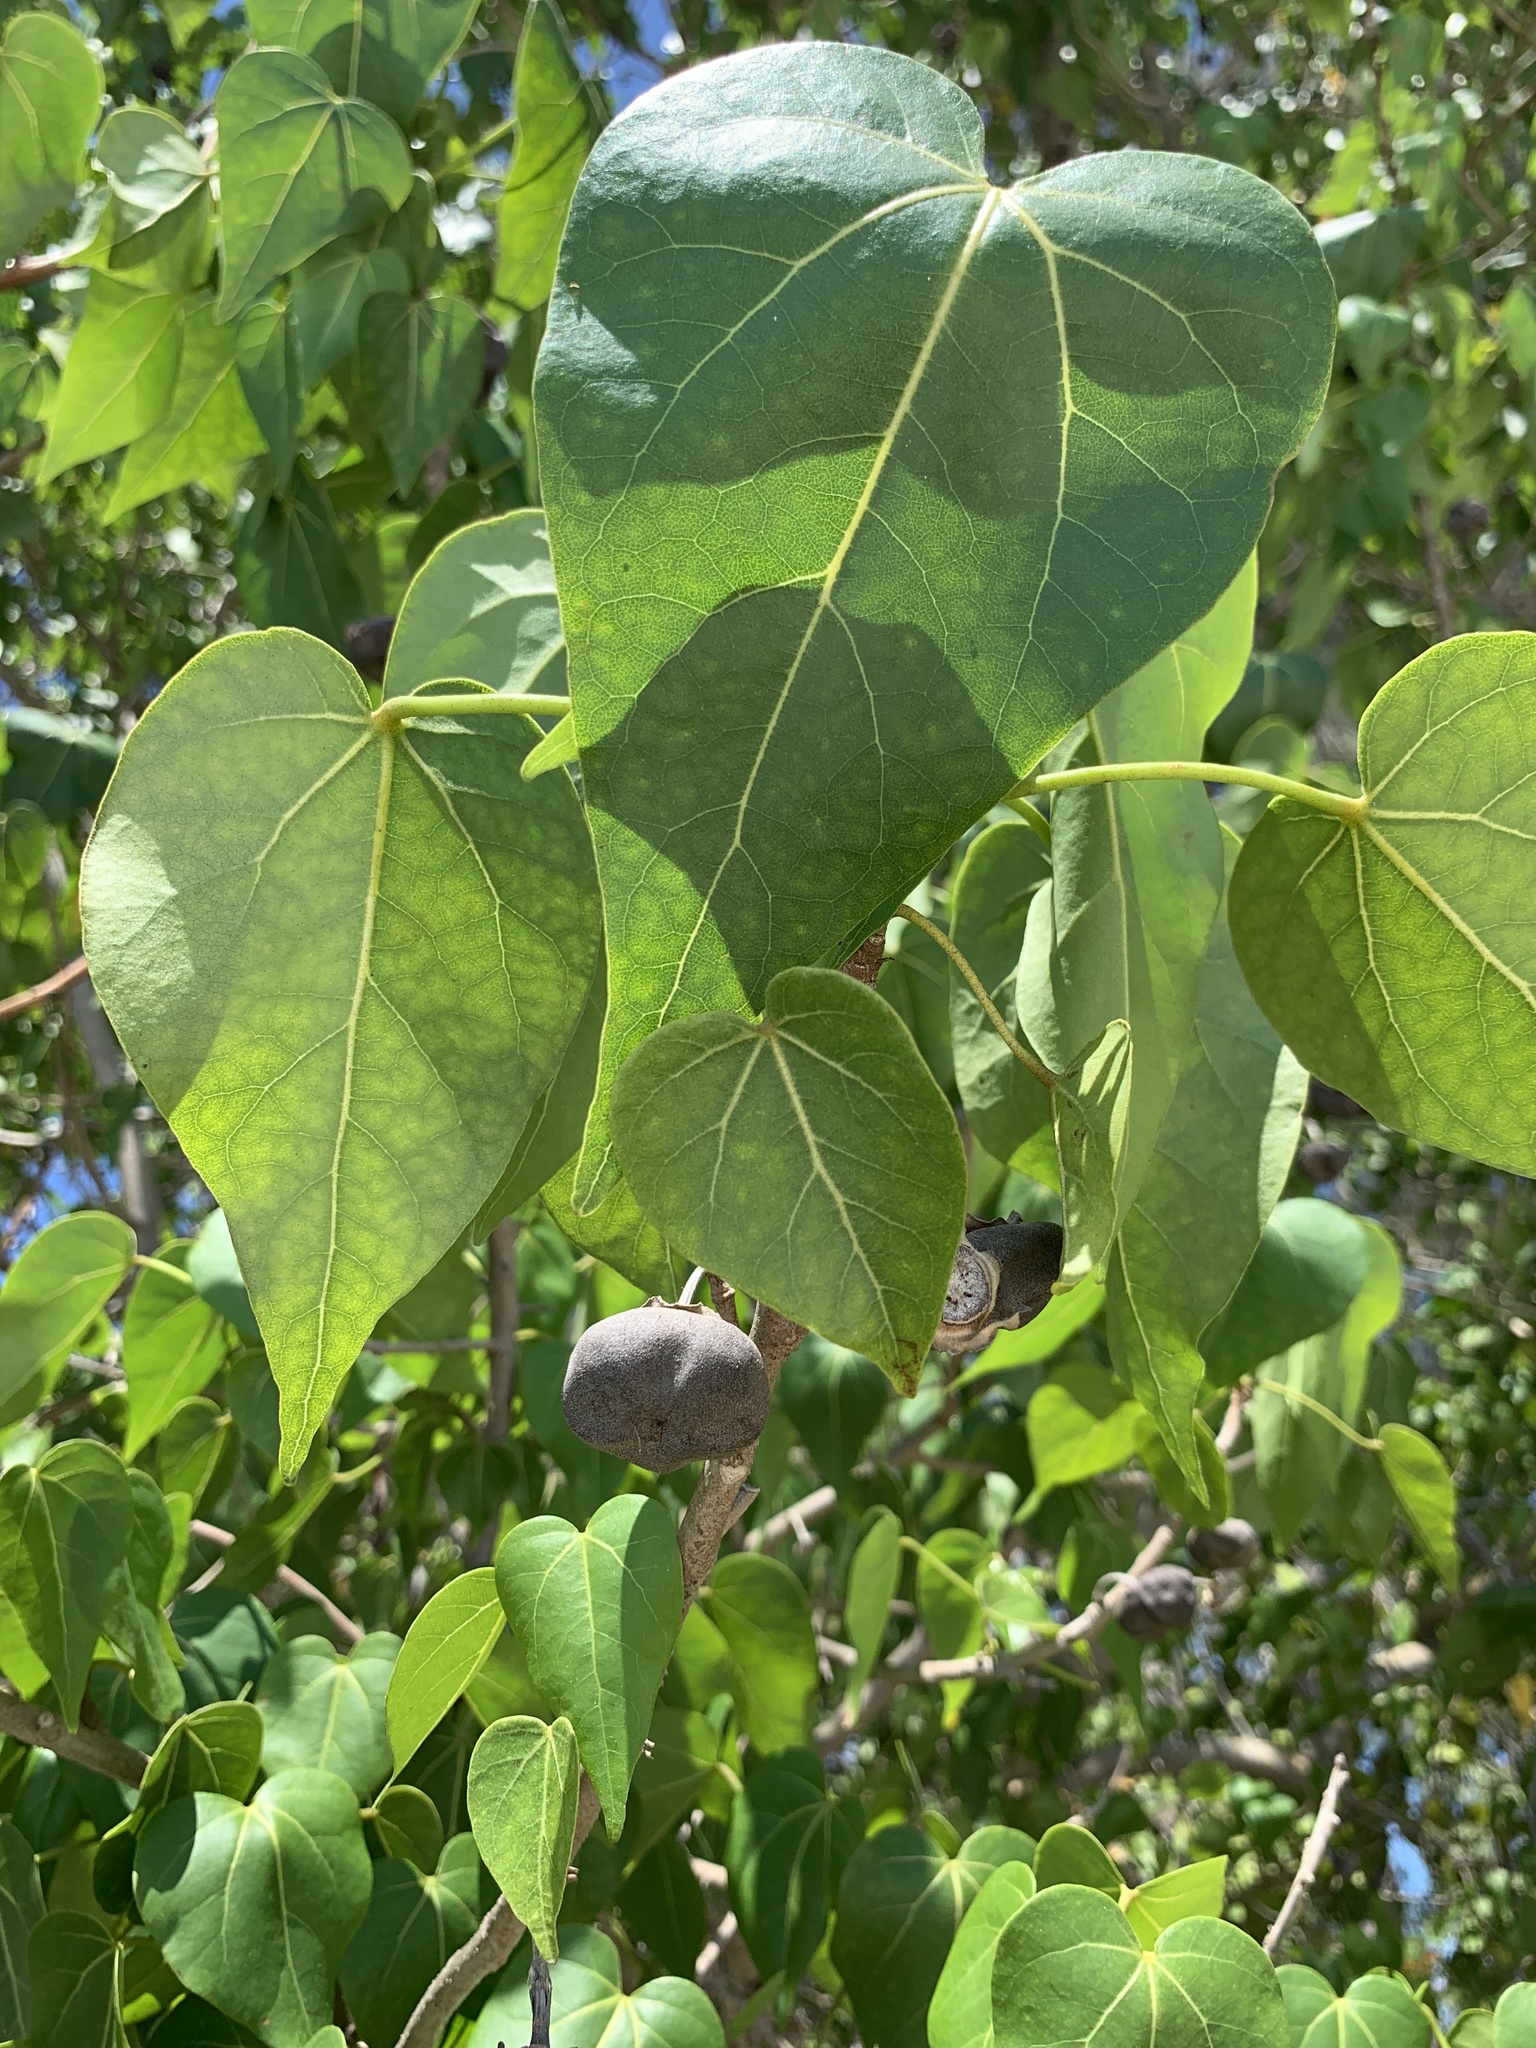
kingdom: Plantae
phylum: Tracheophyta
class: Magnoliopsida
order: Malvales
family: Malvaceae
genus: Thespesia
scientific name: Thespesia populnea
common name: Seaside mahoe
